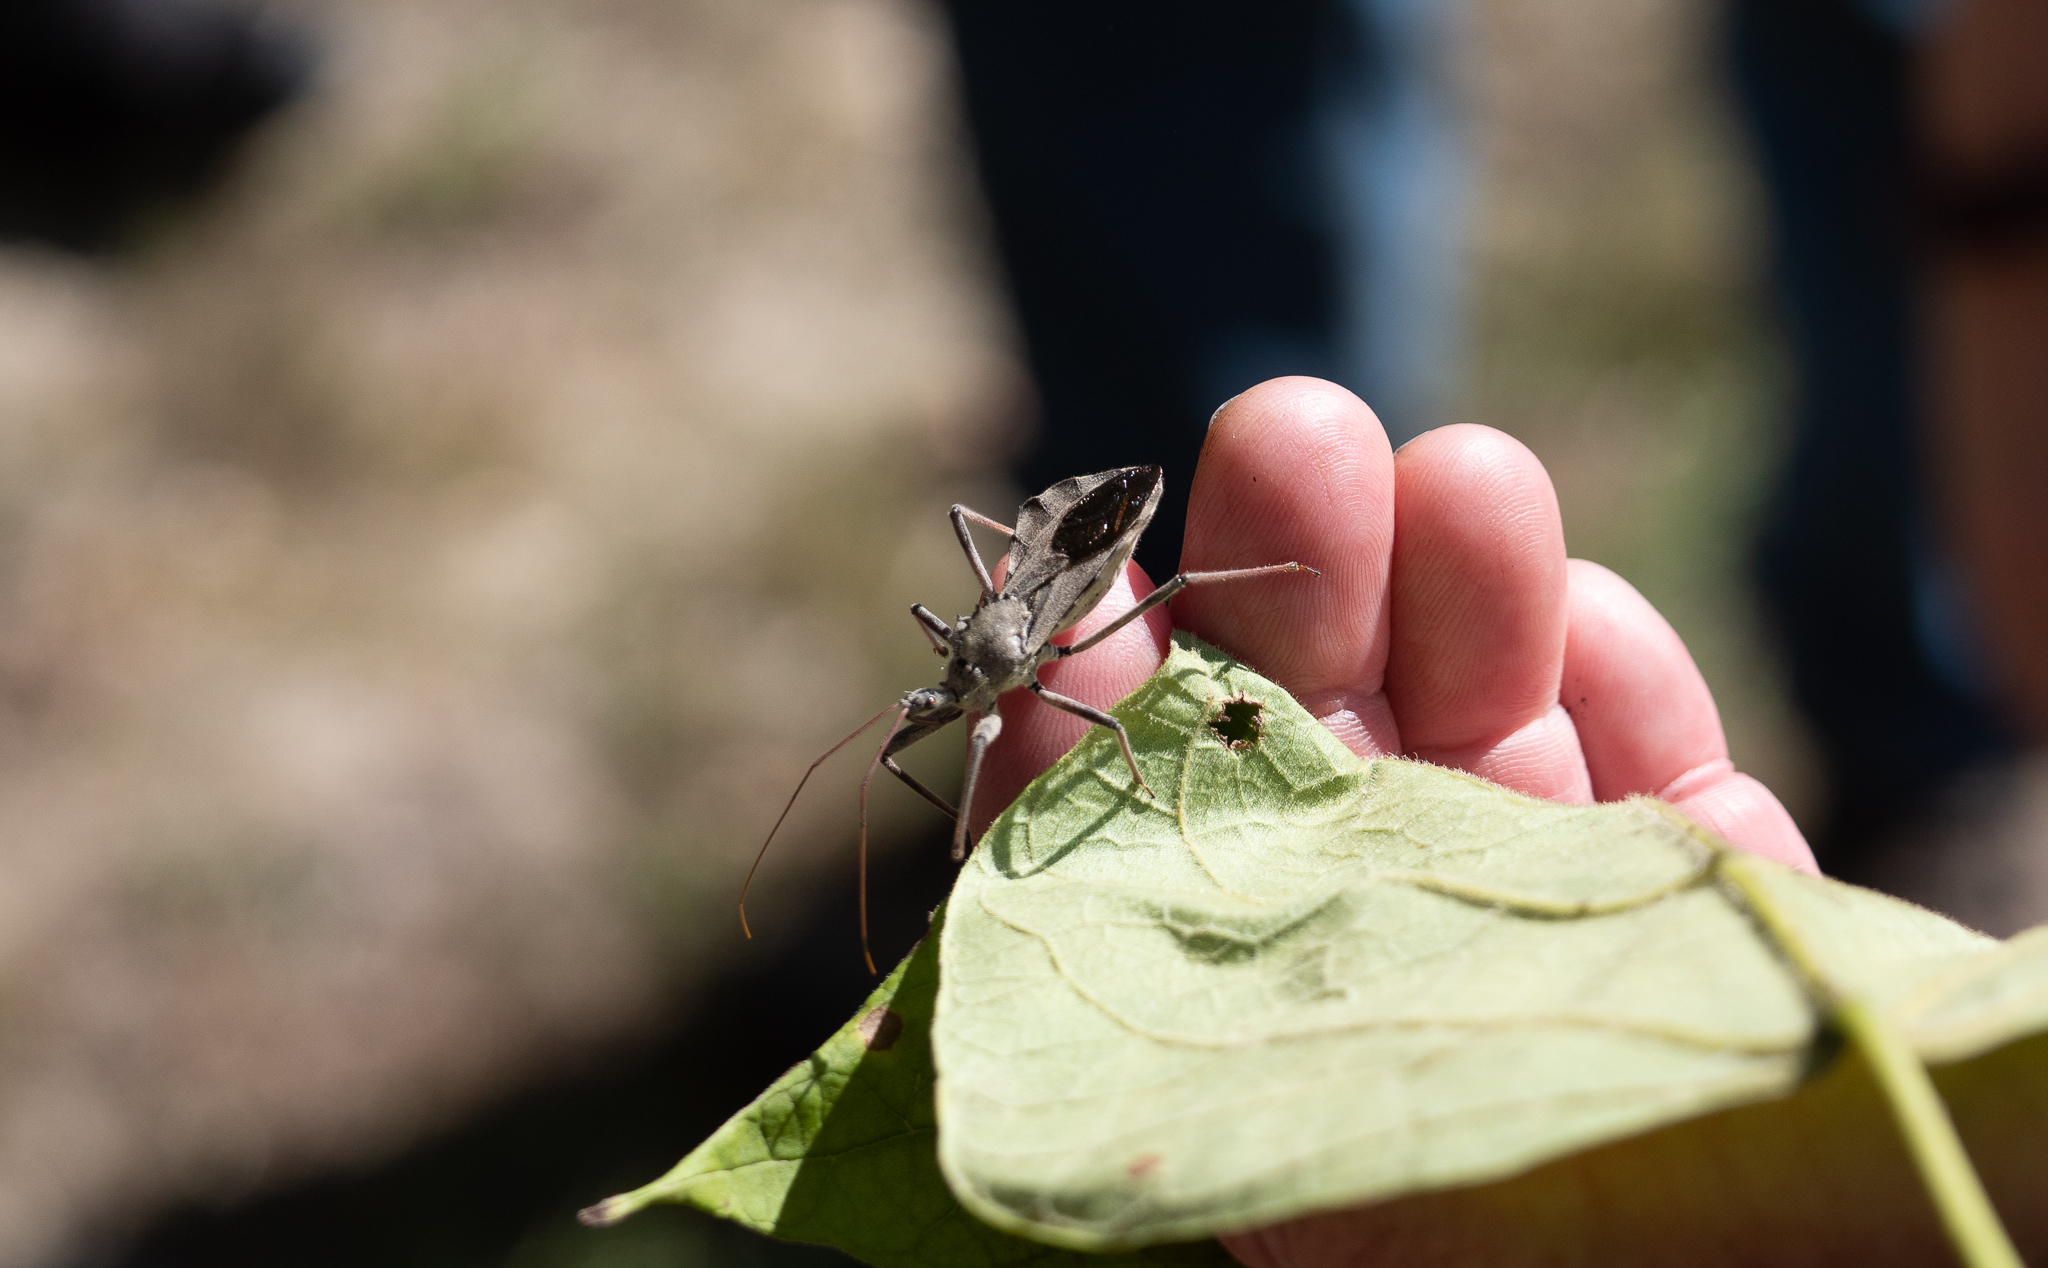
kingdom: Animalia
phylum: Arthropoda
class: Insecta
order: Hemiptera
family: Reduviidae
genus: Arilus
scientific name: Arilus cristatus
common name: North american wheel bug
